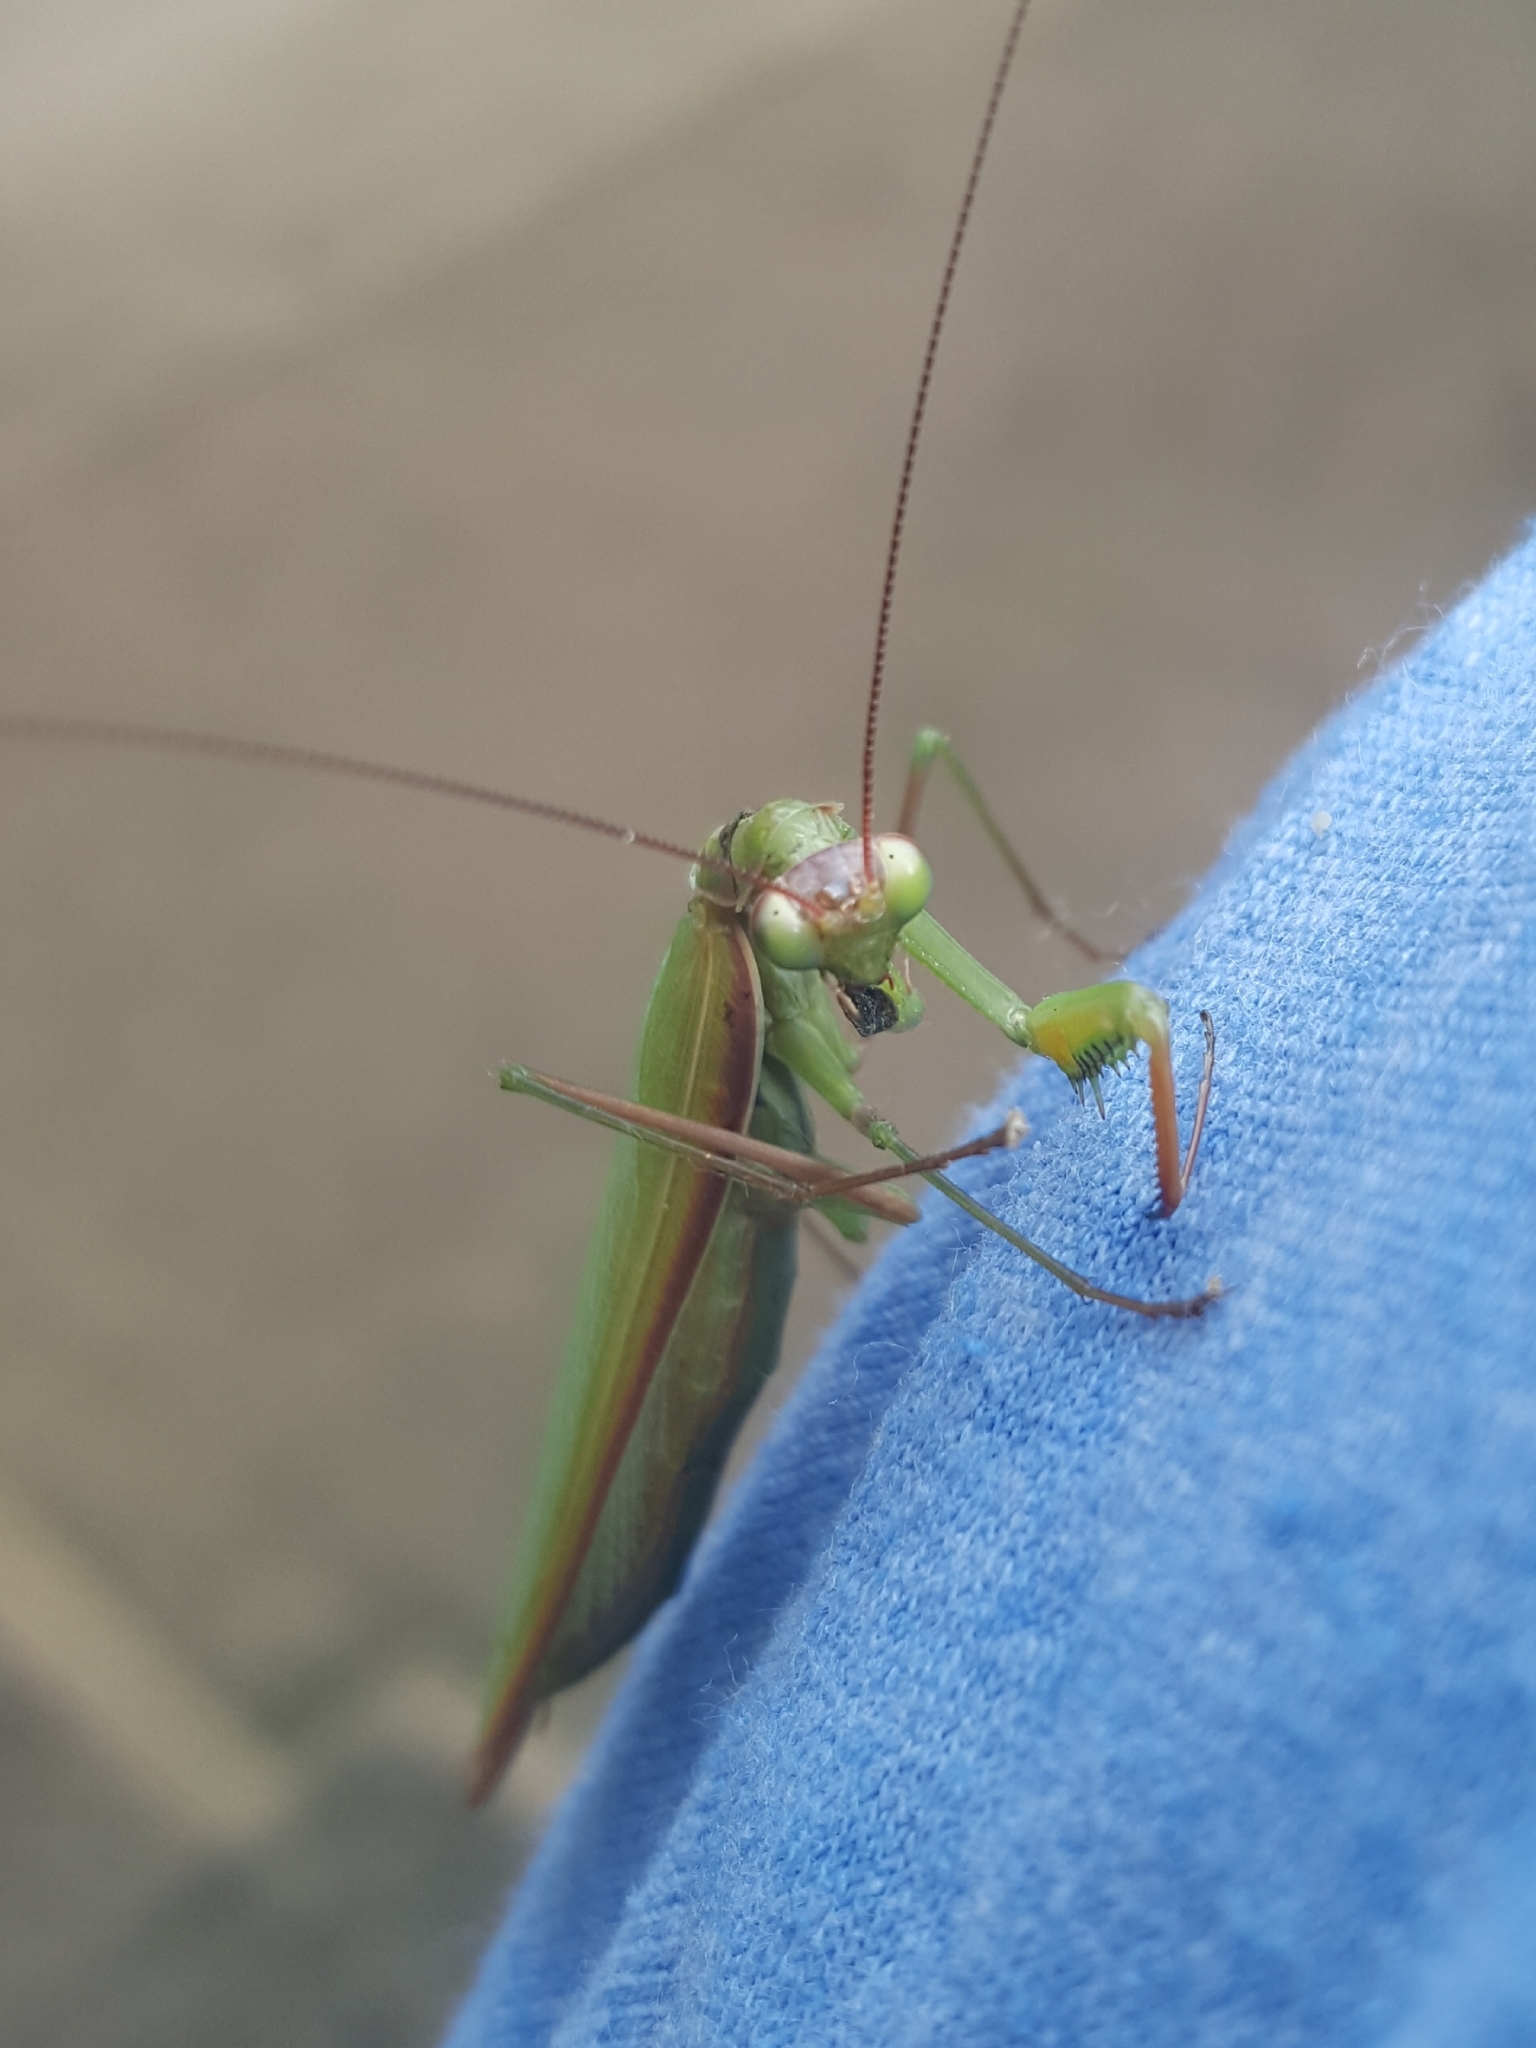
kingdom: Animalia
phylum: Arthropoda
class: Insecta
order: Mantodea
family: Mantidae
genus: Mantis
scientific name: Mantis religiosa
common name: Praying mantis
